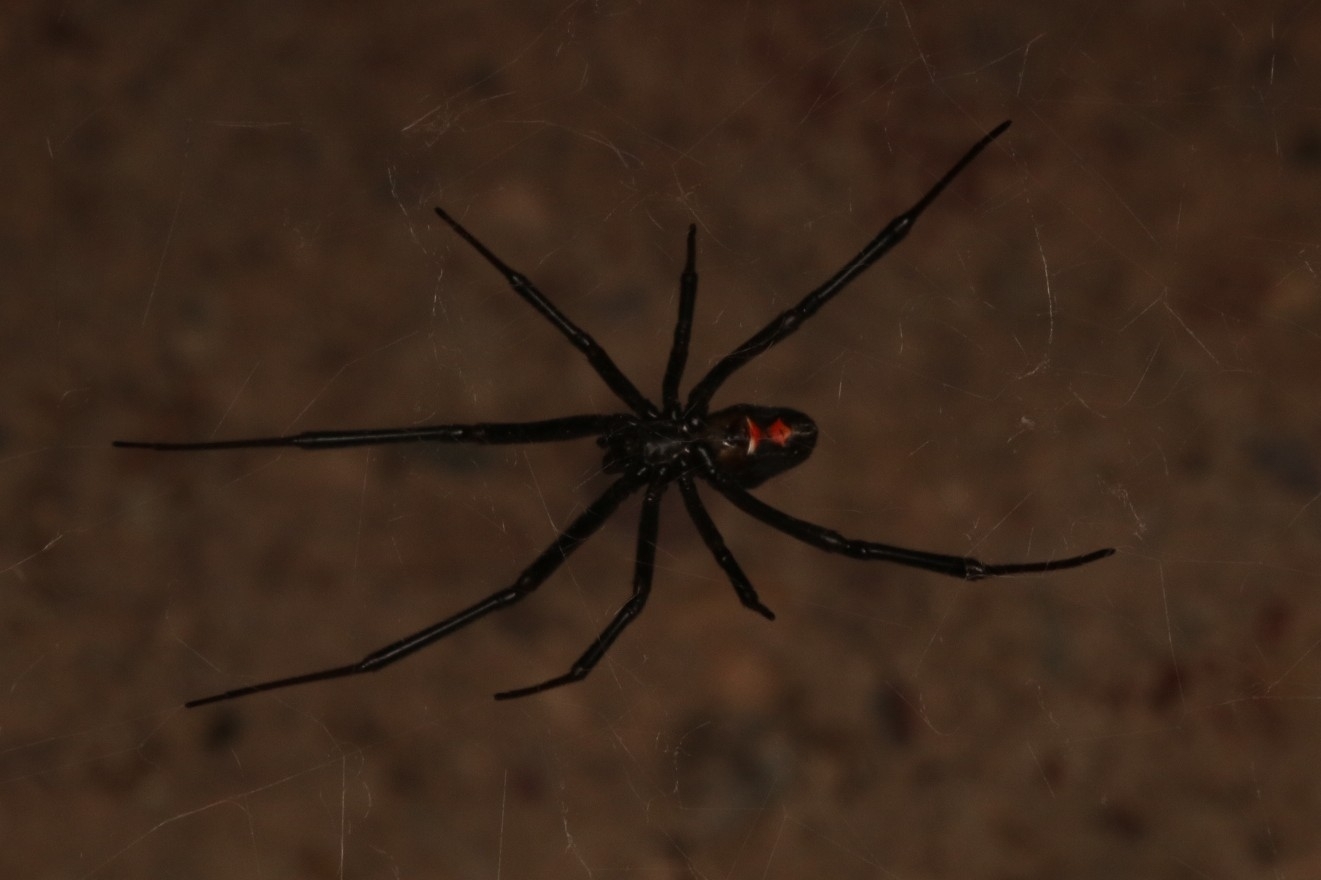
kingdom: Animalia
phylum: Arthropoda
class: Arachnida
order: Araneae
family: Theridiidae
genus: Latrodectus
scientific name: Latrodectus hesperus
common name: Western black widow
